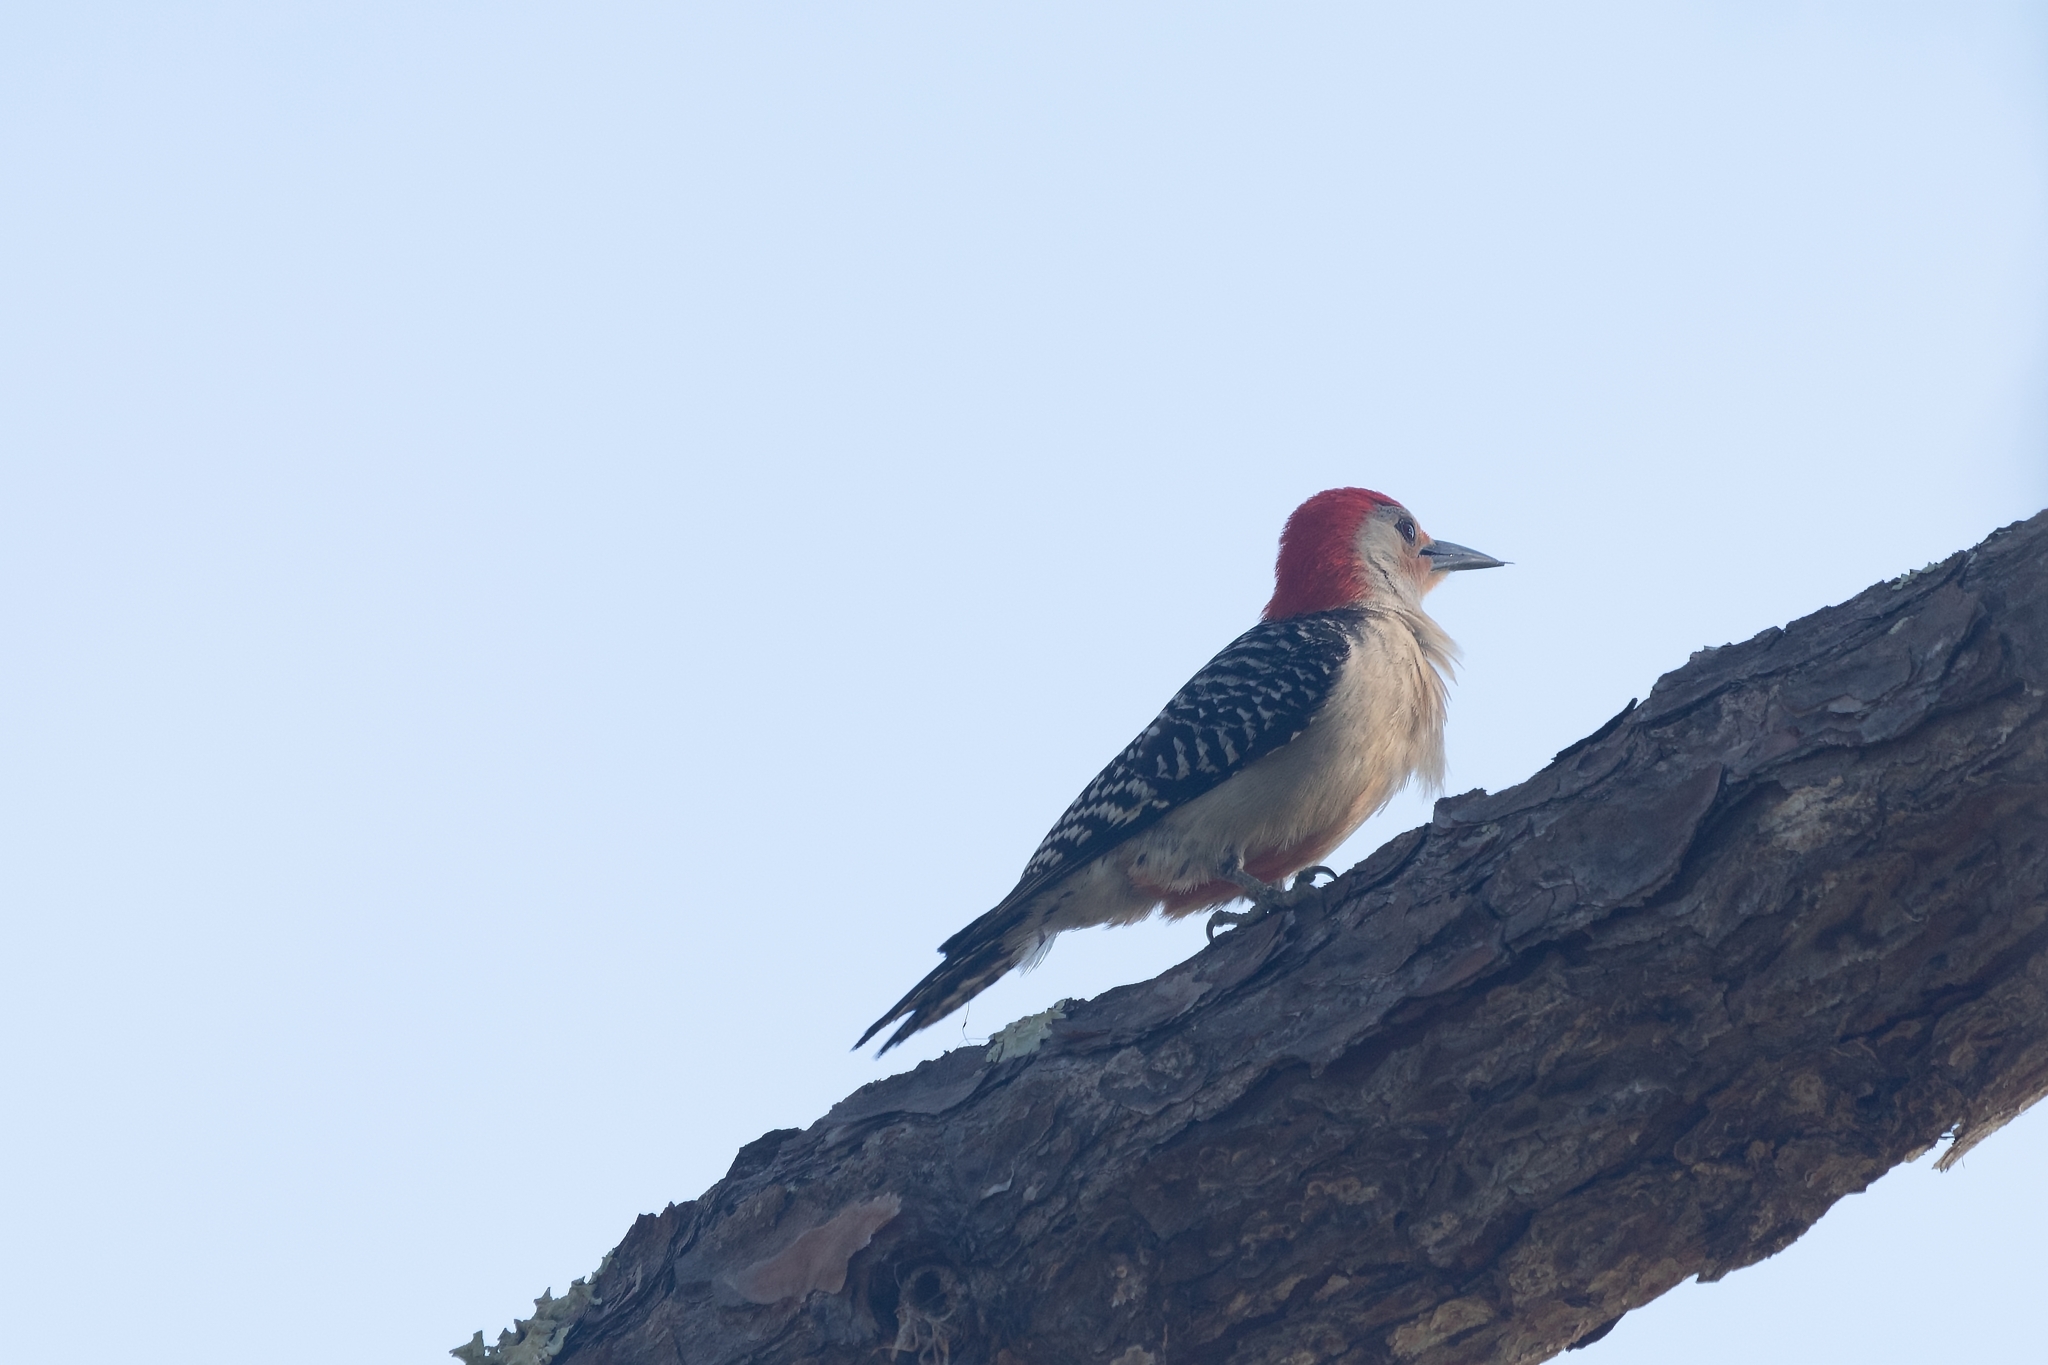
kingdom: Animalia
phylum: Chordata
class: Aves
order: Piciformes
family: Picidae
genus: Melanerpes
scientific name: Melanerpes carolinus
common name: Red-bellied woodpecker
